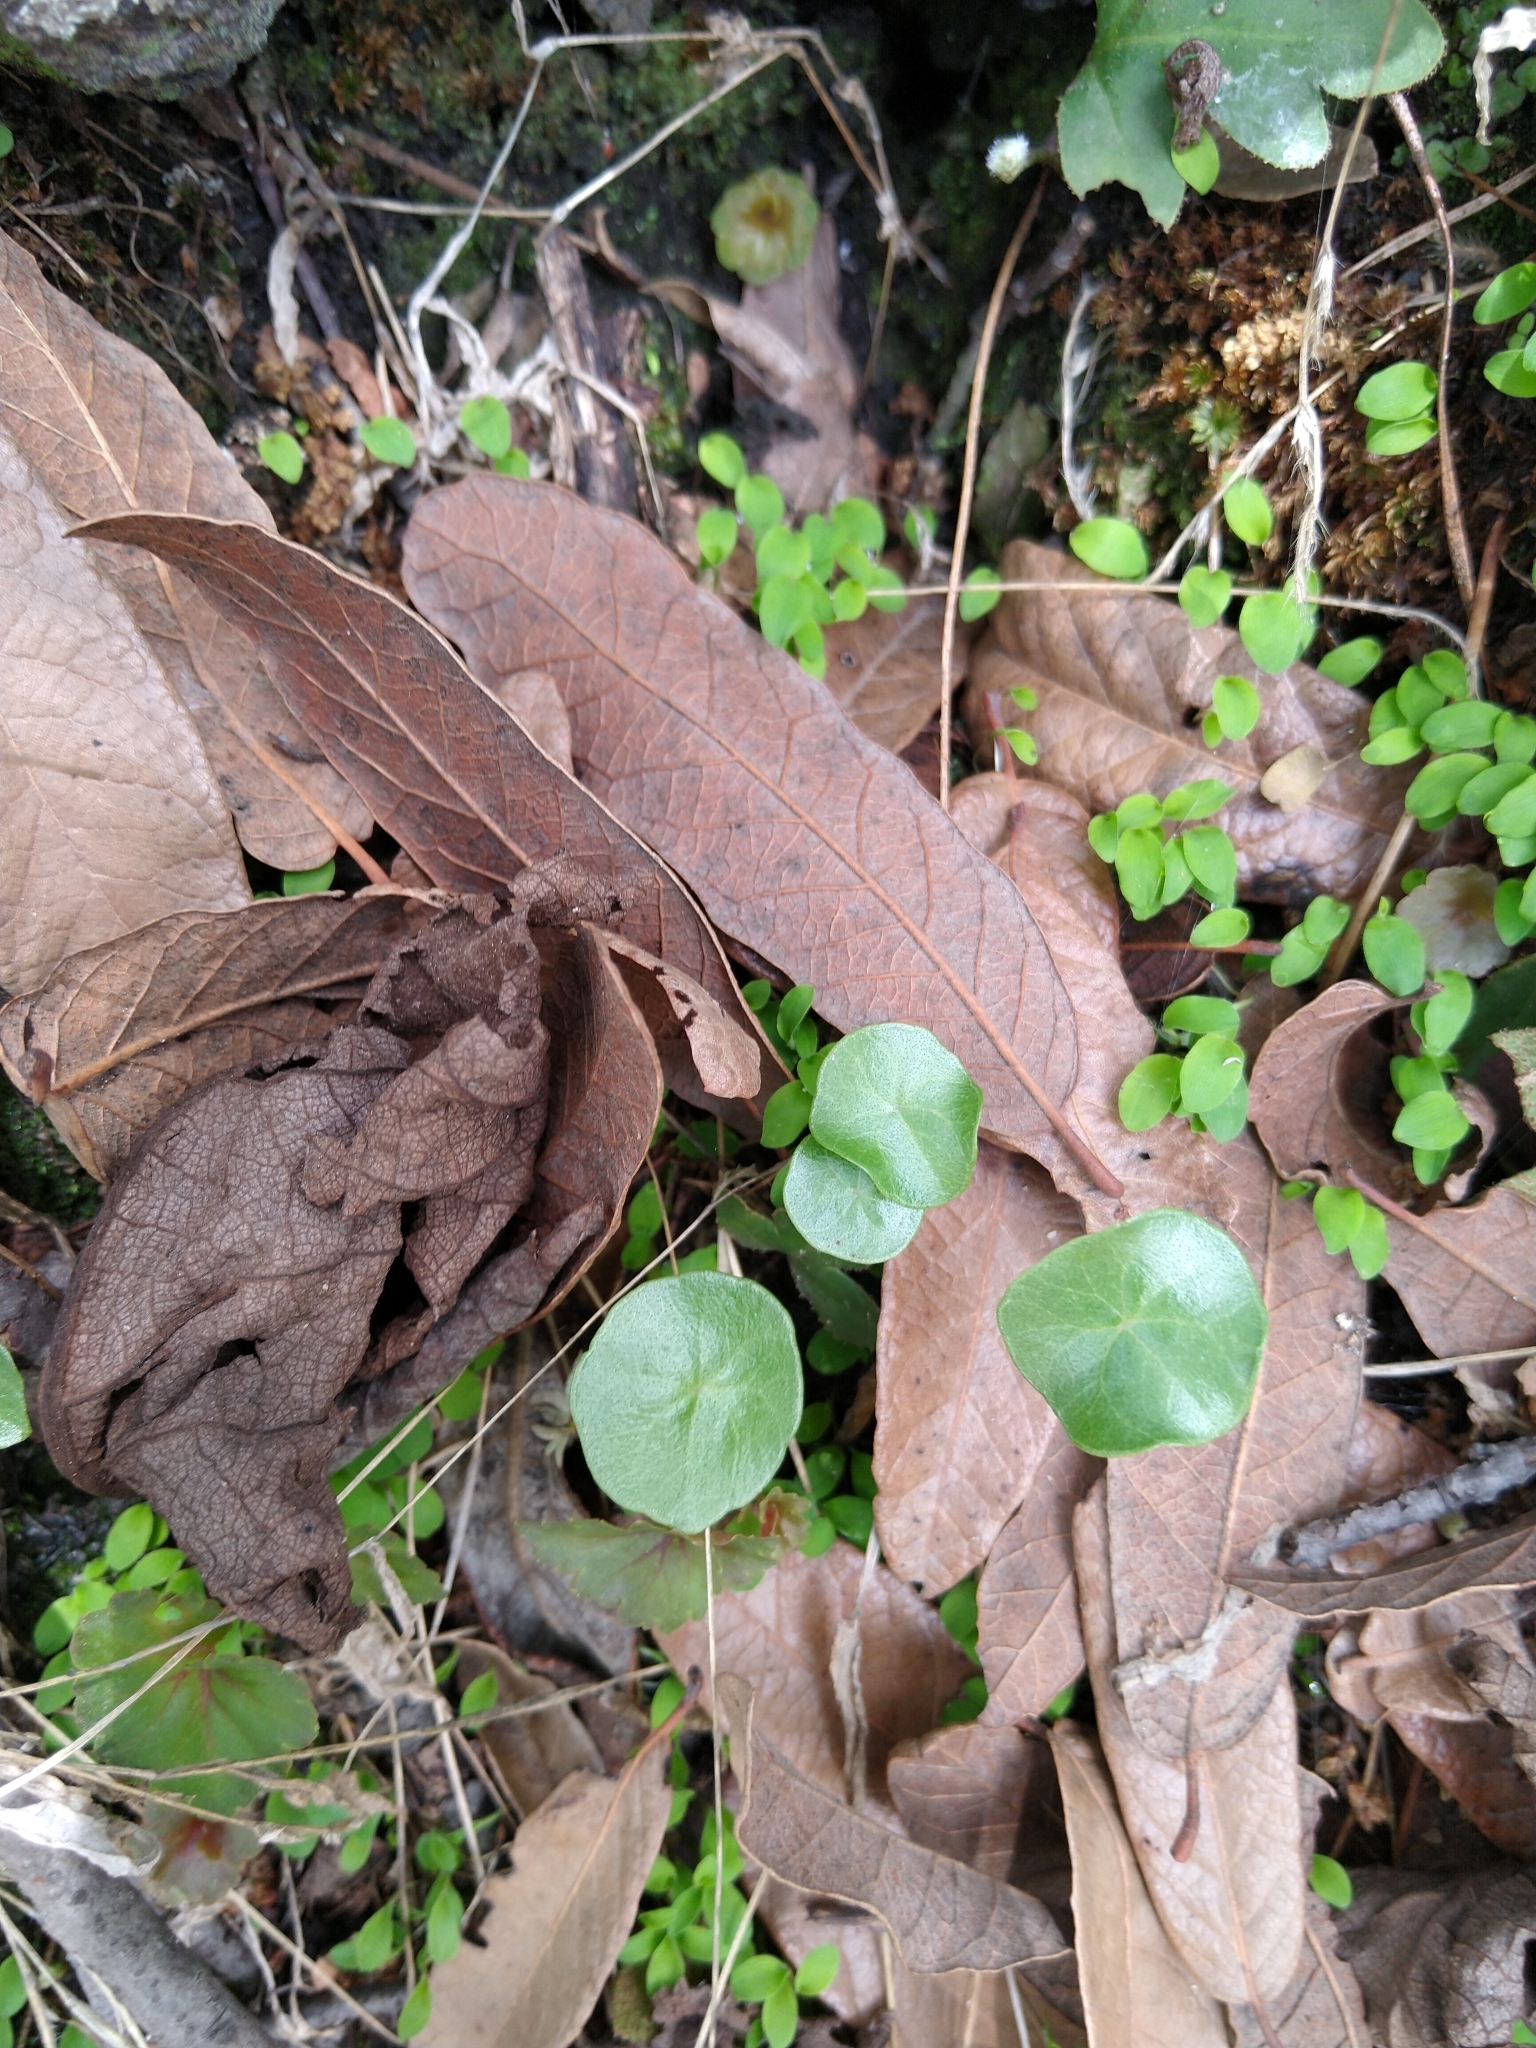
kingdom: Plantae
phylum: Tracheophyta
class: Magnoliopsida
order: Piperales
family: Piperaceae
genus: Peperomia
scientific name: Peperomia bracteata
